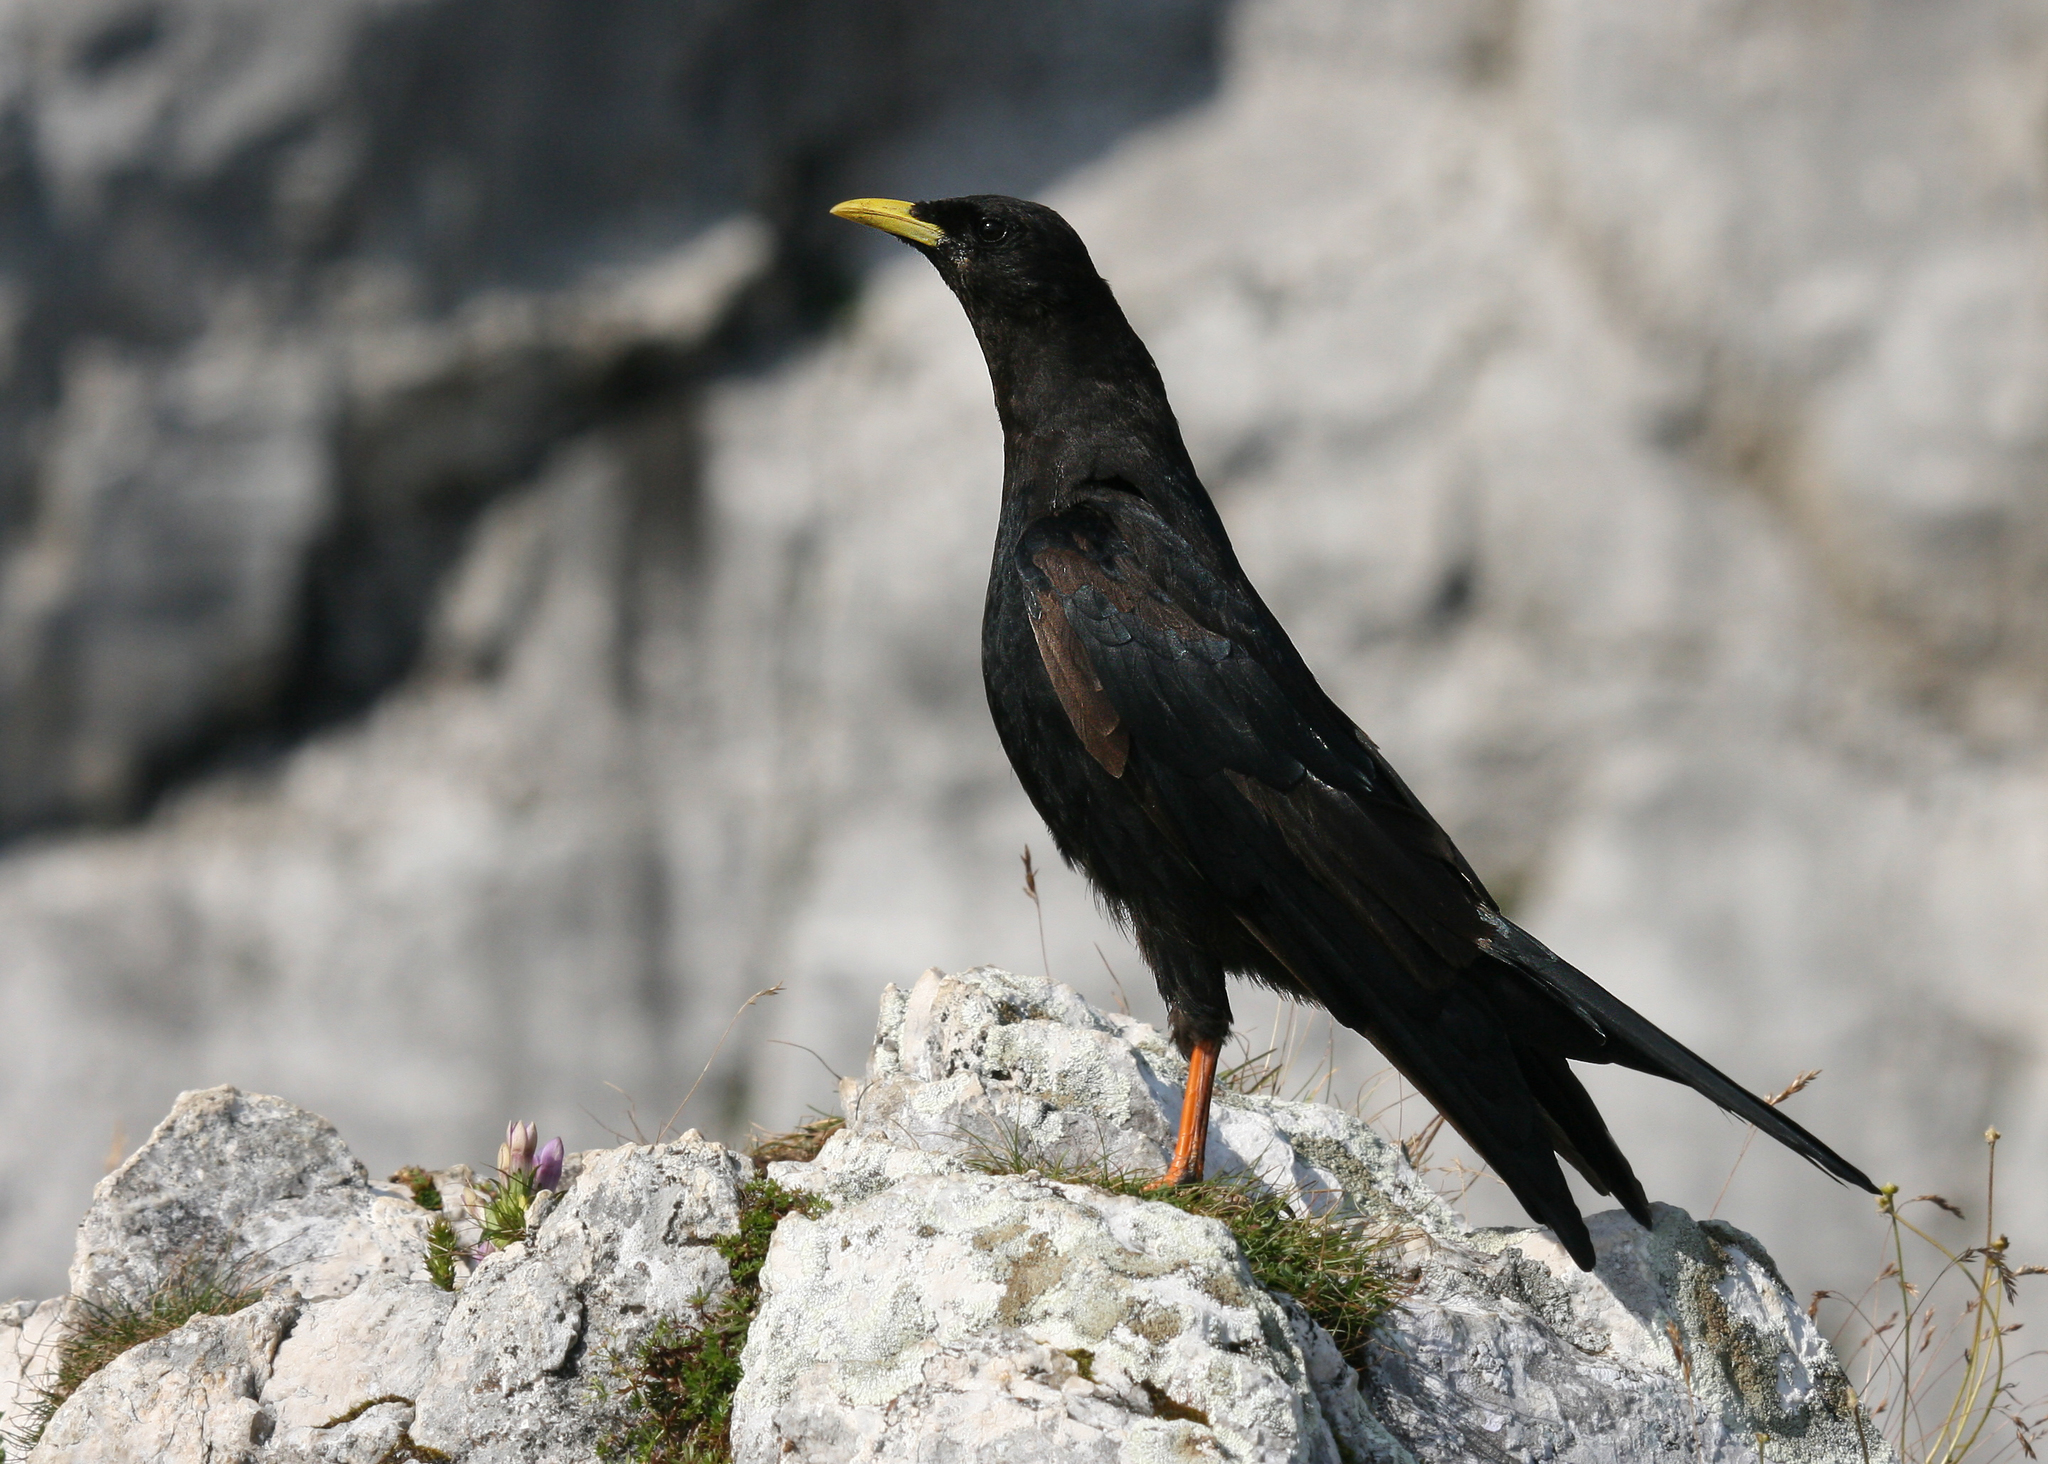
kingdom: Animalia
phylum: Chordata
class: Aves
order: Passeriformes
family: Corvidae
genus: Pyrrhocorax
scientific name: Pyrrhocorax graculus
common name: Alpine chough
